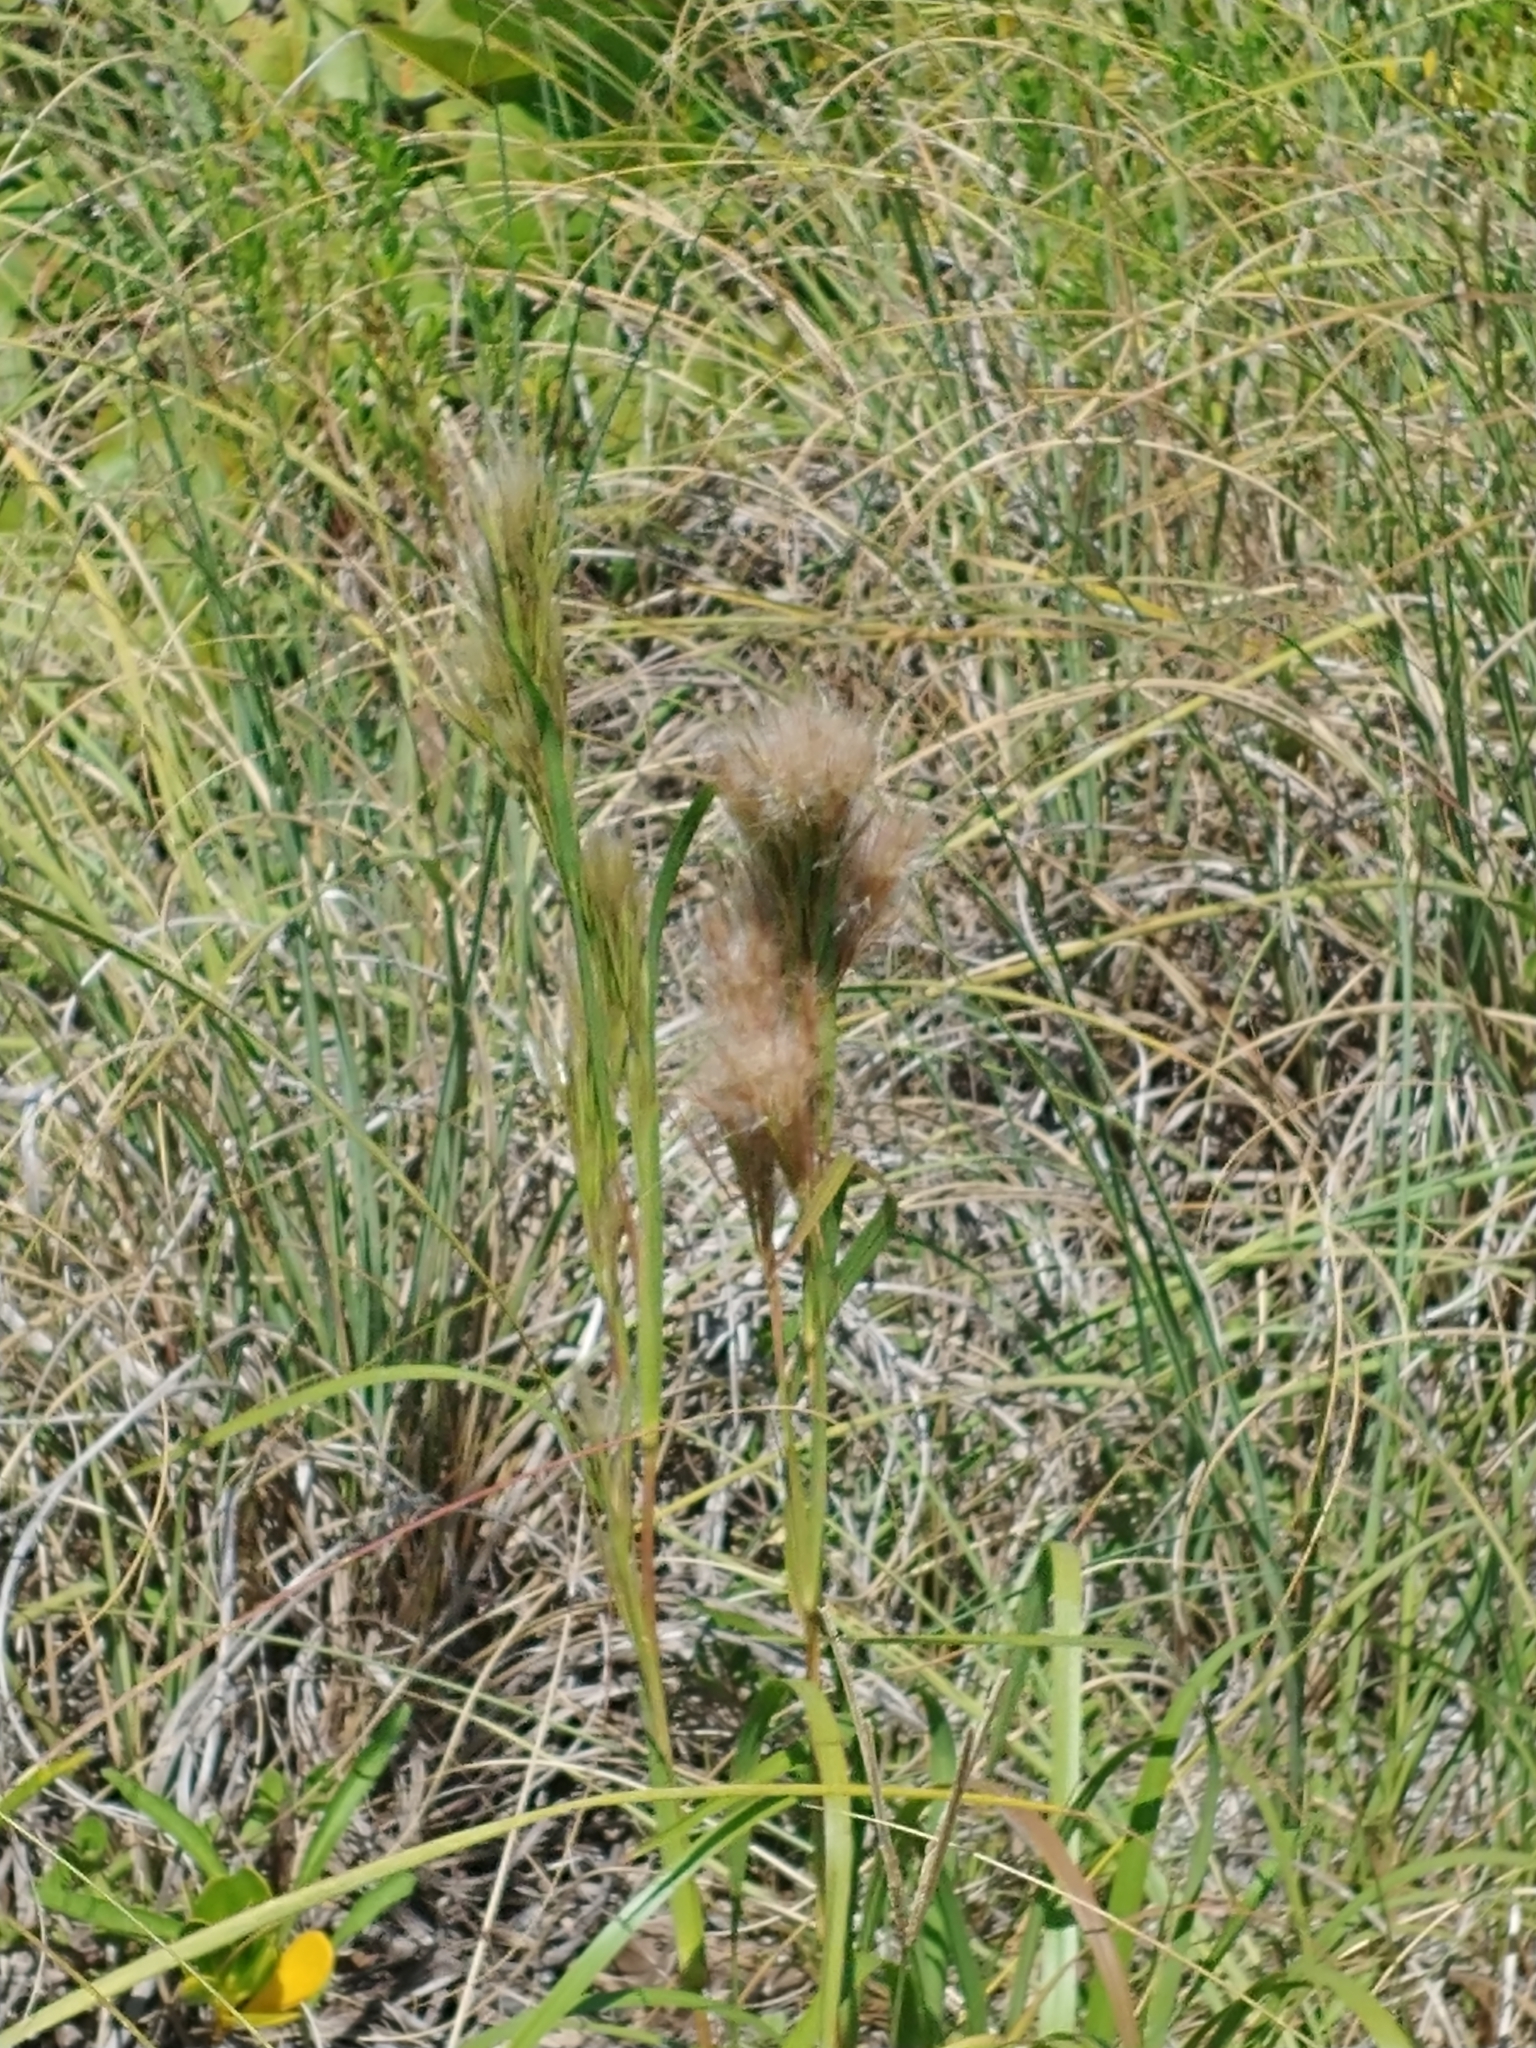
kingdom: Plantae
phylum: Tracheophyta
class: Liliopsida
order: Poales
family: Poaceae
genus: Andropogon
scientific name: Andropogon tenuispatheus
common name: Bushy bluestem
